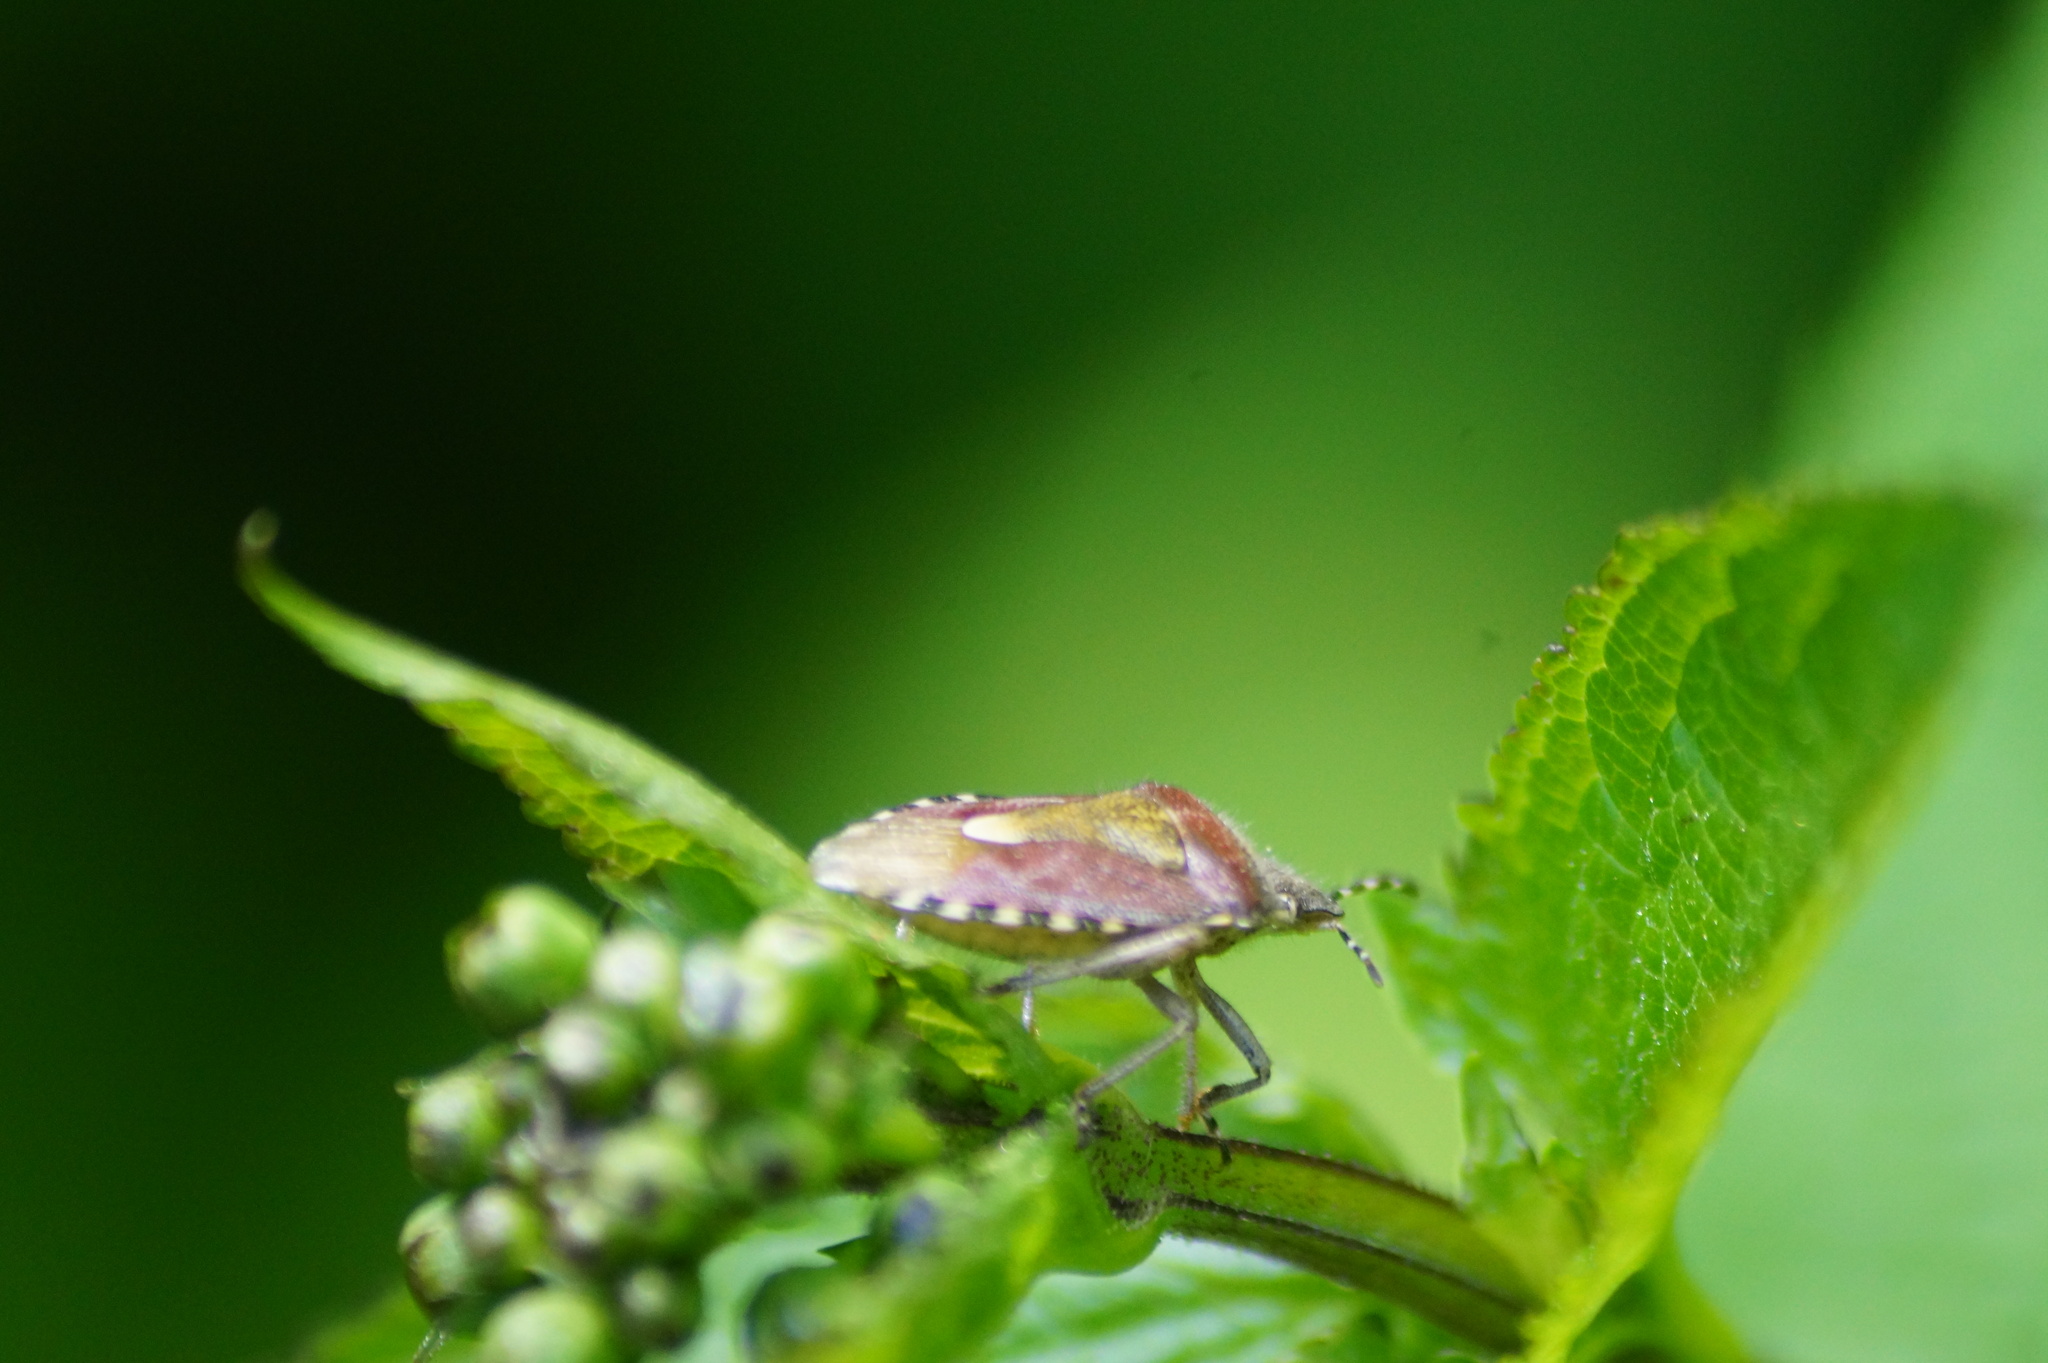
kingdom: Animalia
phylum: Arthropoda
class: Insecta
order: Hemiptera
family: Pentatomidae
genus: Dolycoris
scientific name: Dolycoris baccarum
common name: Sloe bug
